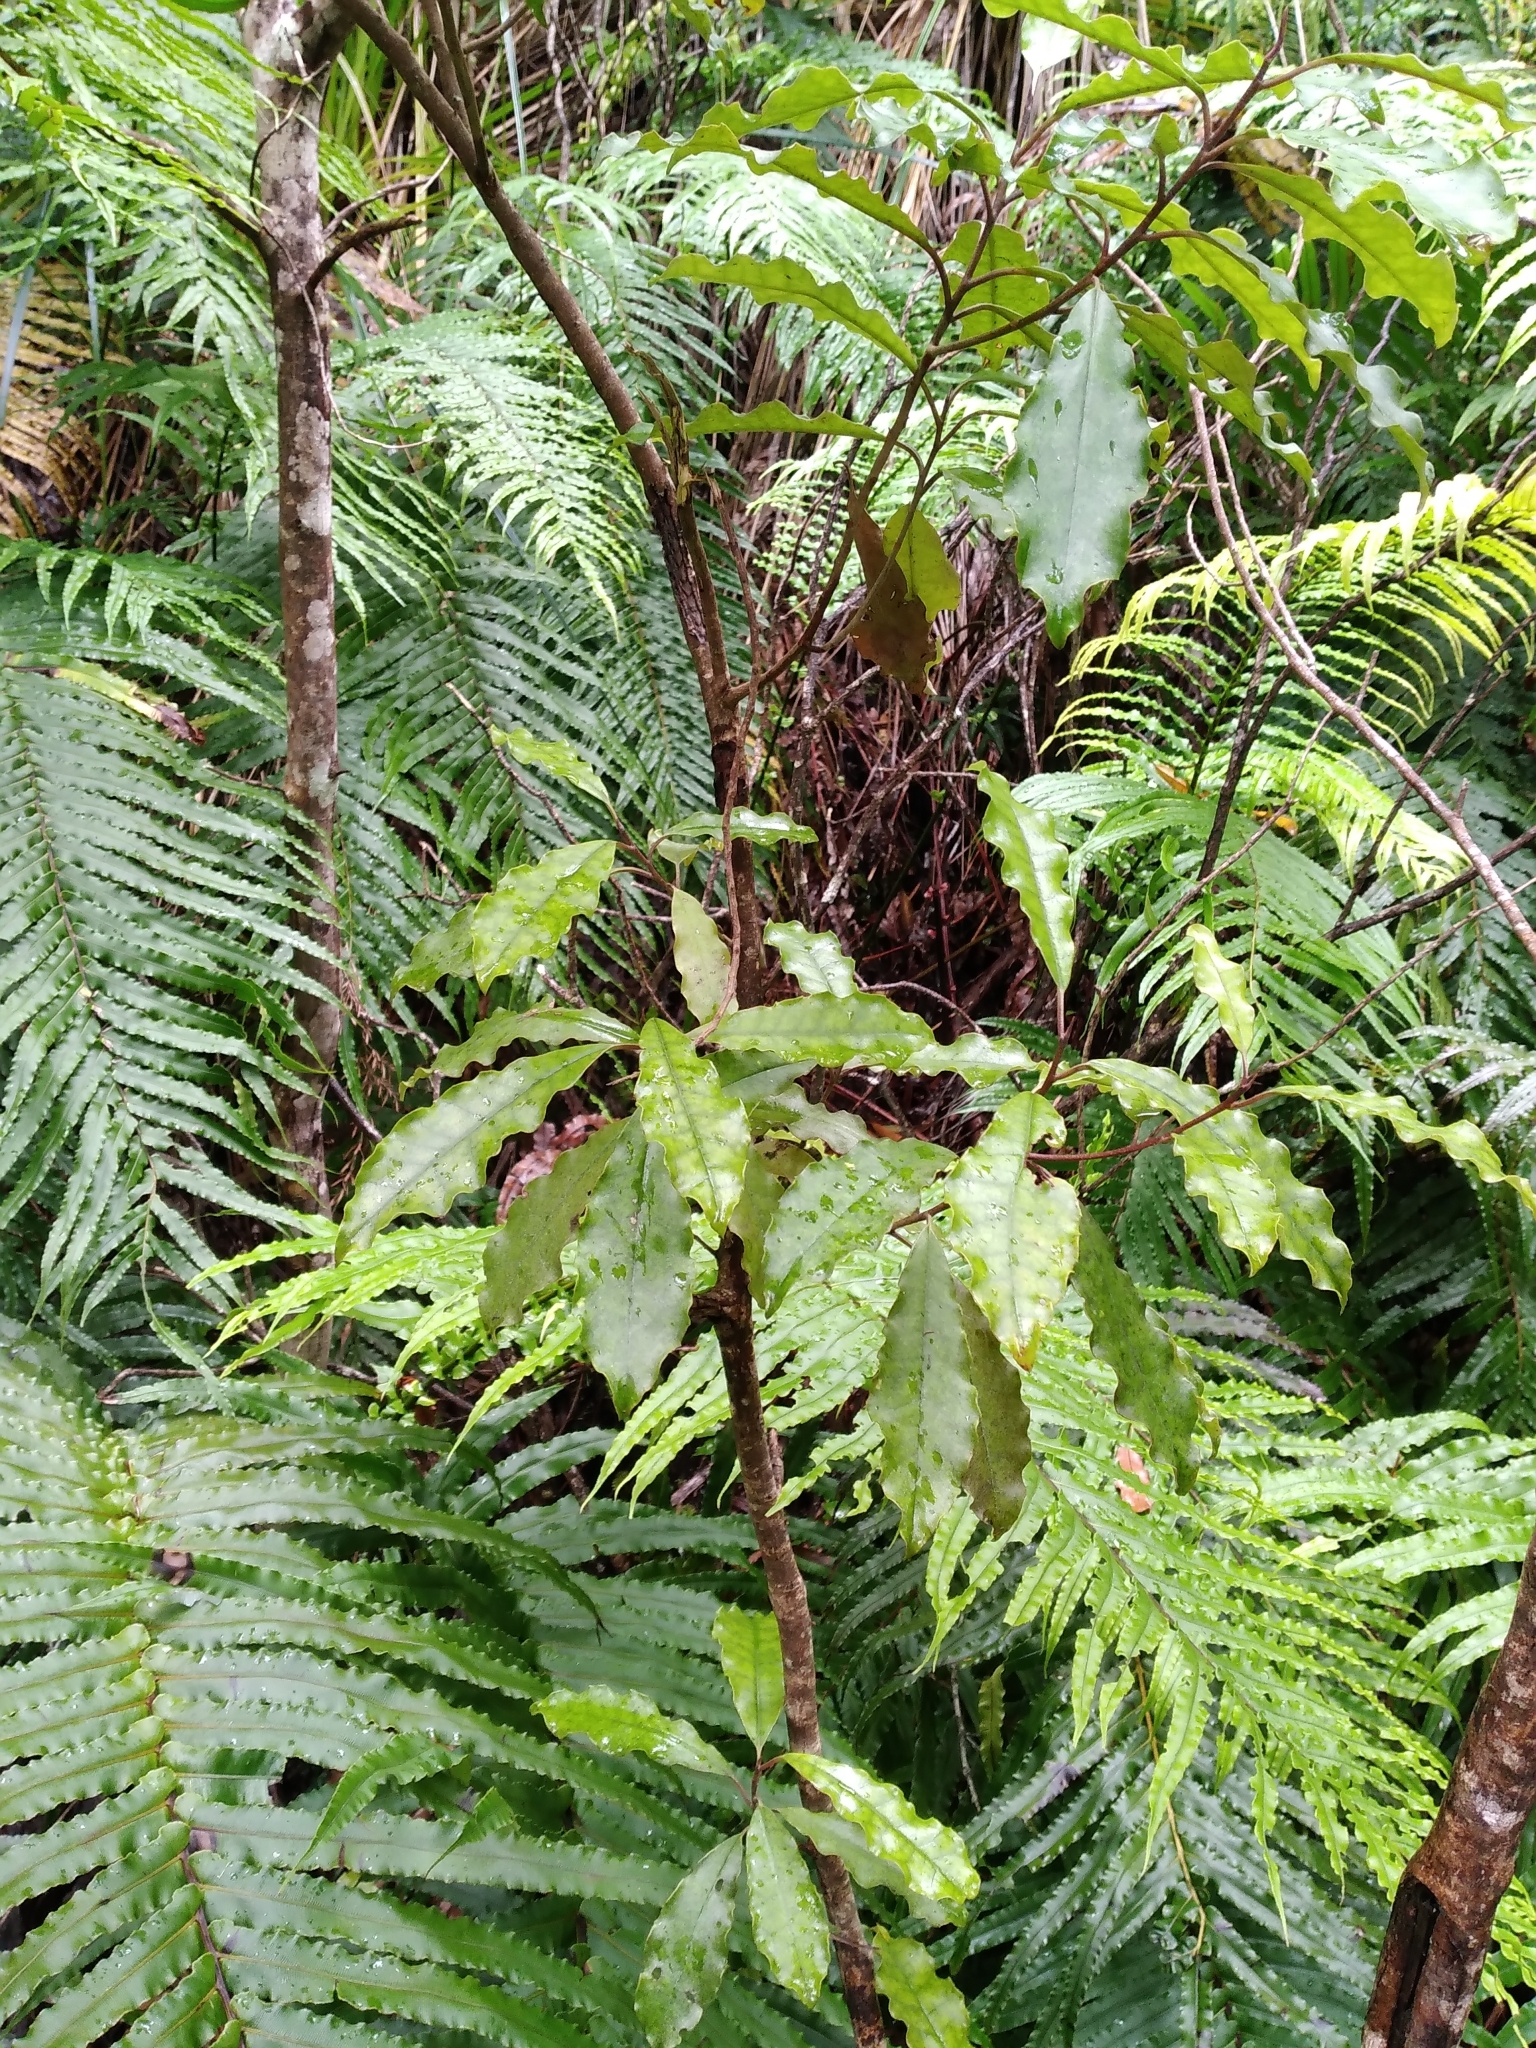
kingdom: Plantae
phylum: Tracheophyta
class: Magnoliopsida
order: Paracryphiales
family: Paracryphiaceae
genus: Quintinia
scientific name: Quintinia serrata
